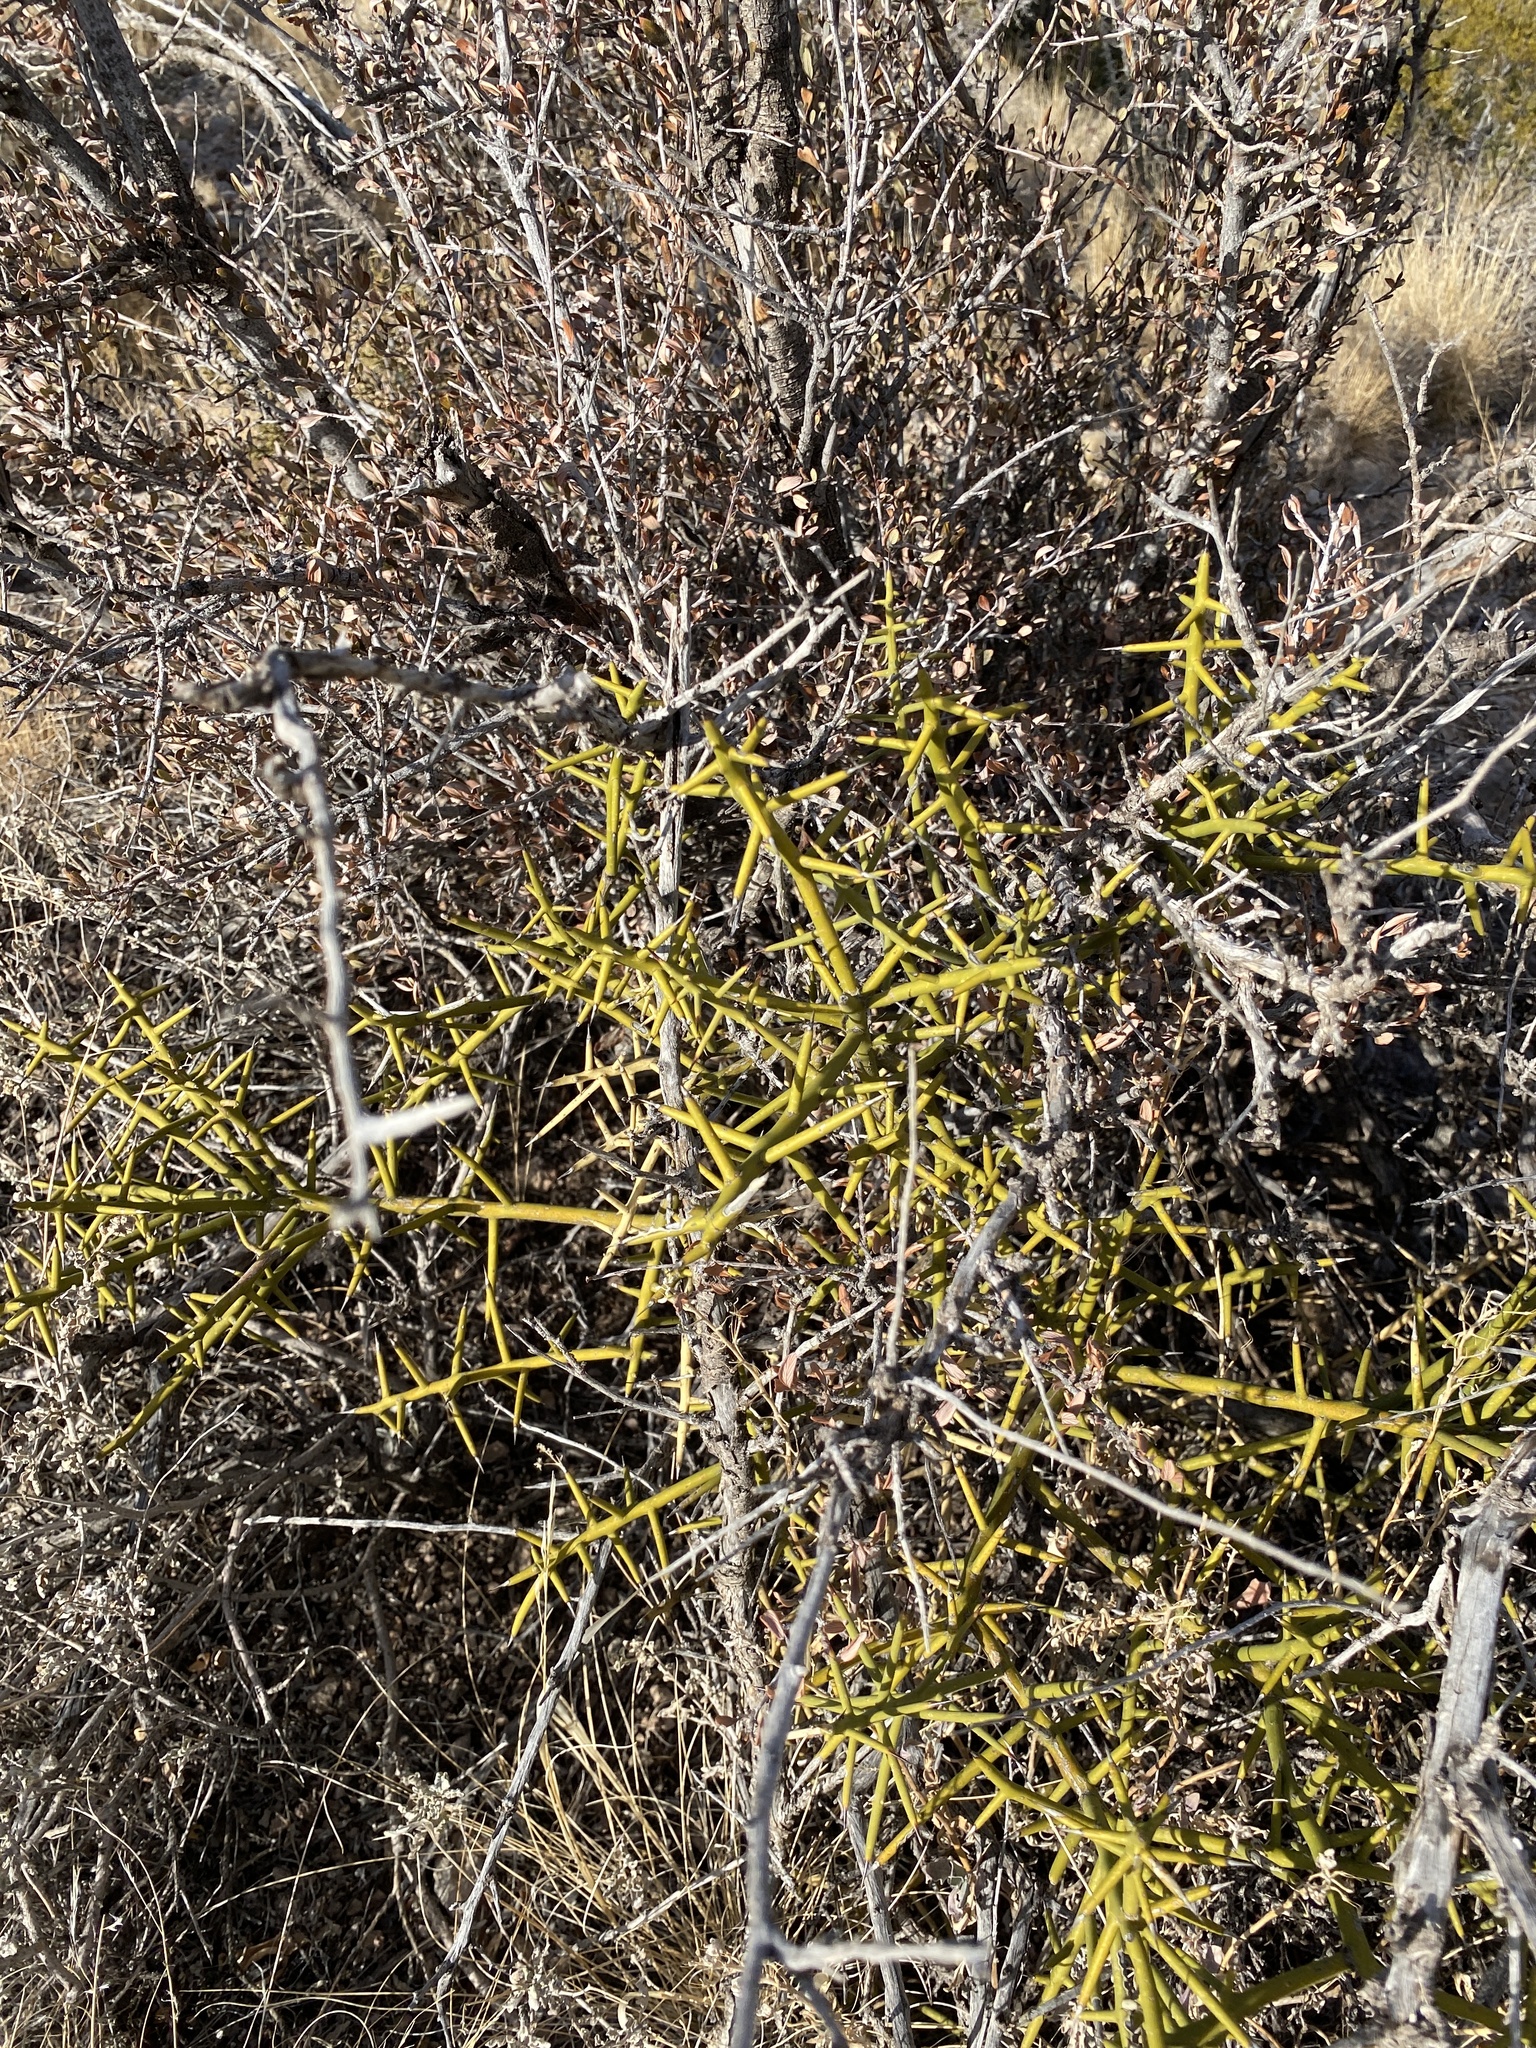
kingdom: Plantae
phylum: Tracheophyta
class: Magnoliopsida
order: Brassicales
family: Koeberliniaceae
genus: Koeberlinia
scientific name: Koeberlinia spinosa
